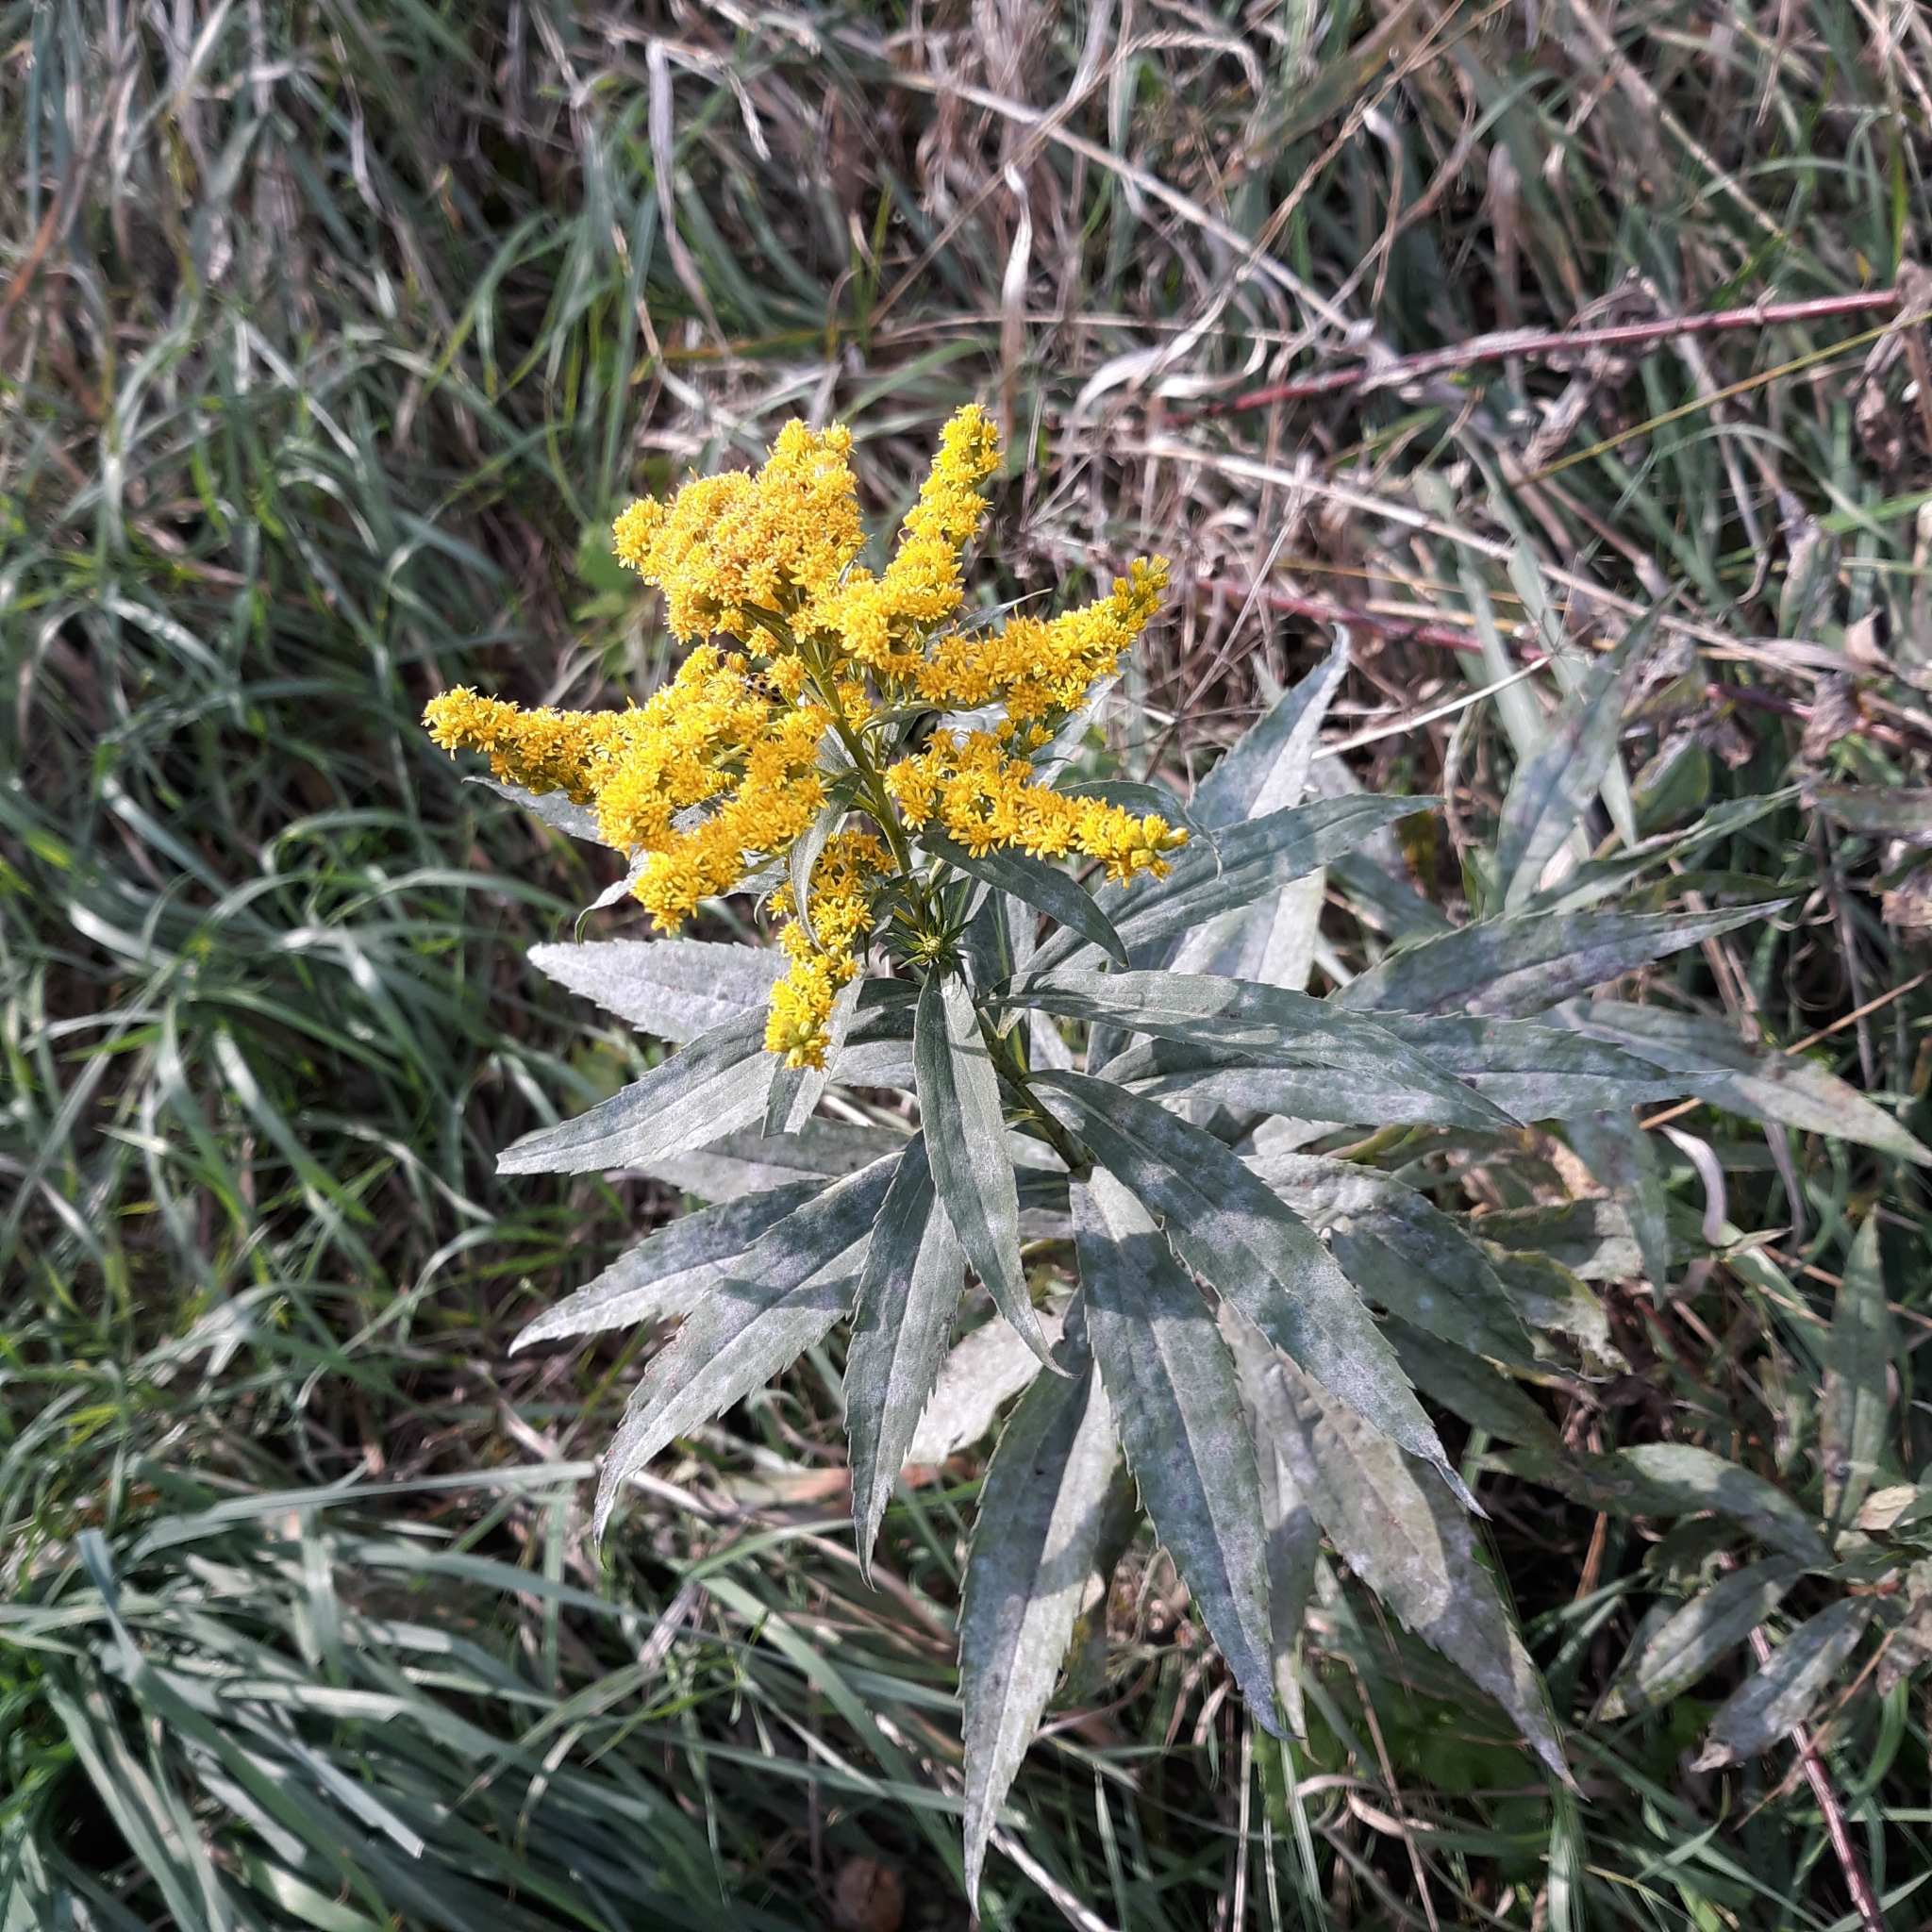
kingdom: Plantae
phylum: Tracheophyta
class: Magnoliopsida
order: Asterales
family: Asteraceae
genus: Solidago
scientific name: Solidago canadensis
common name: Canada goldenrod
